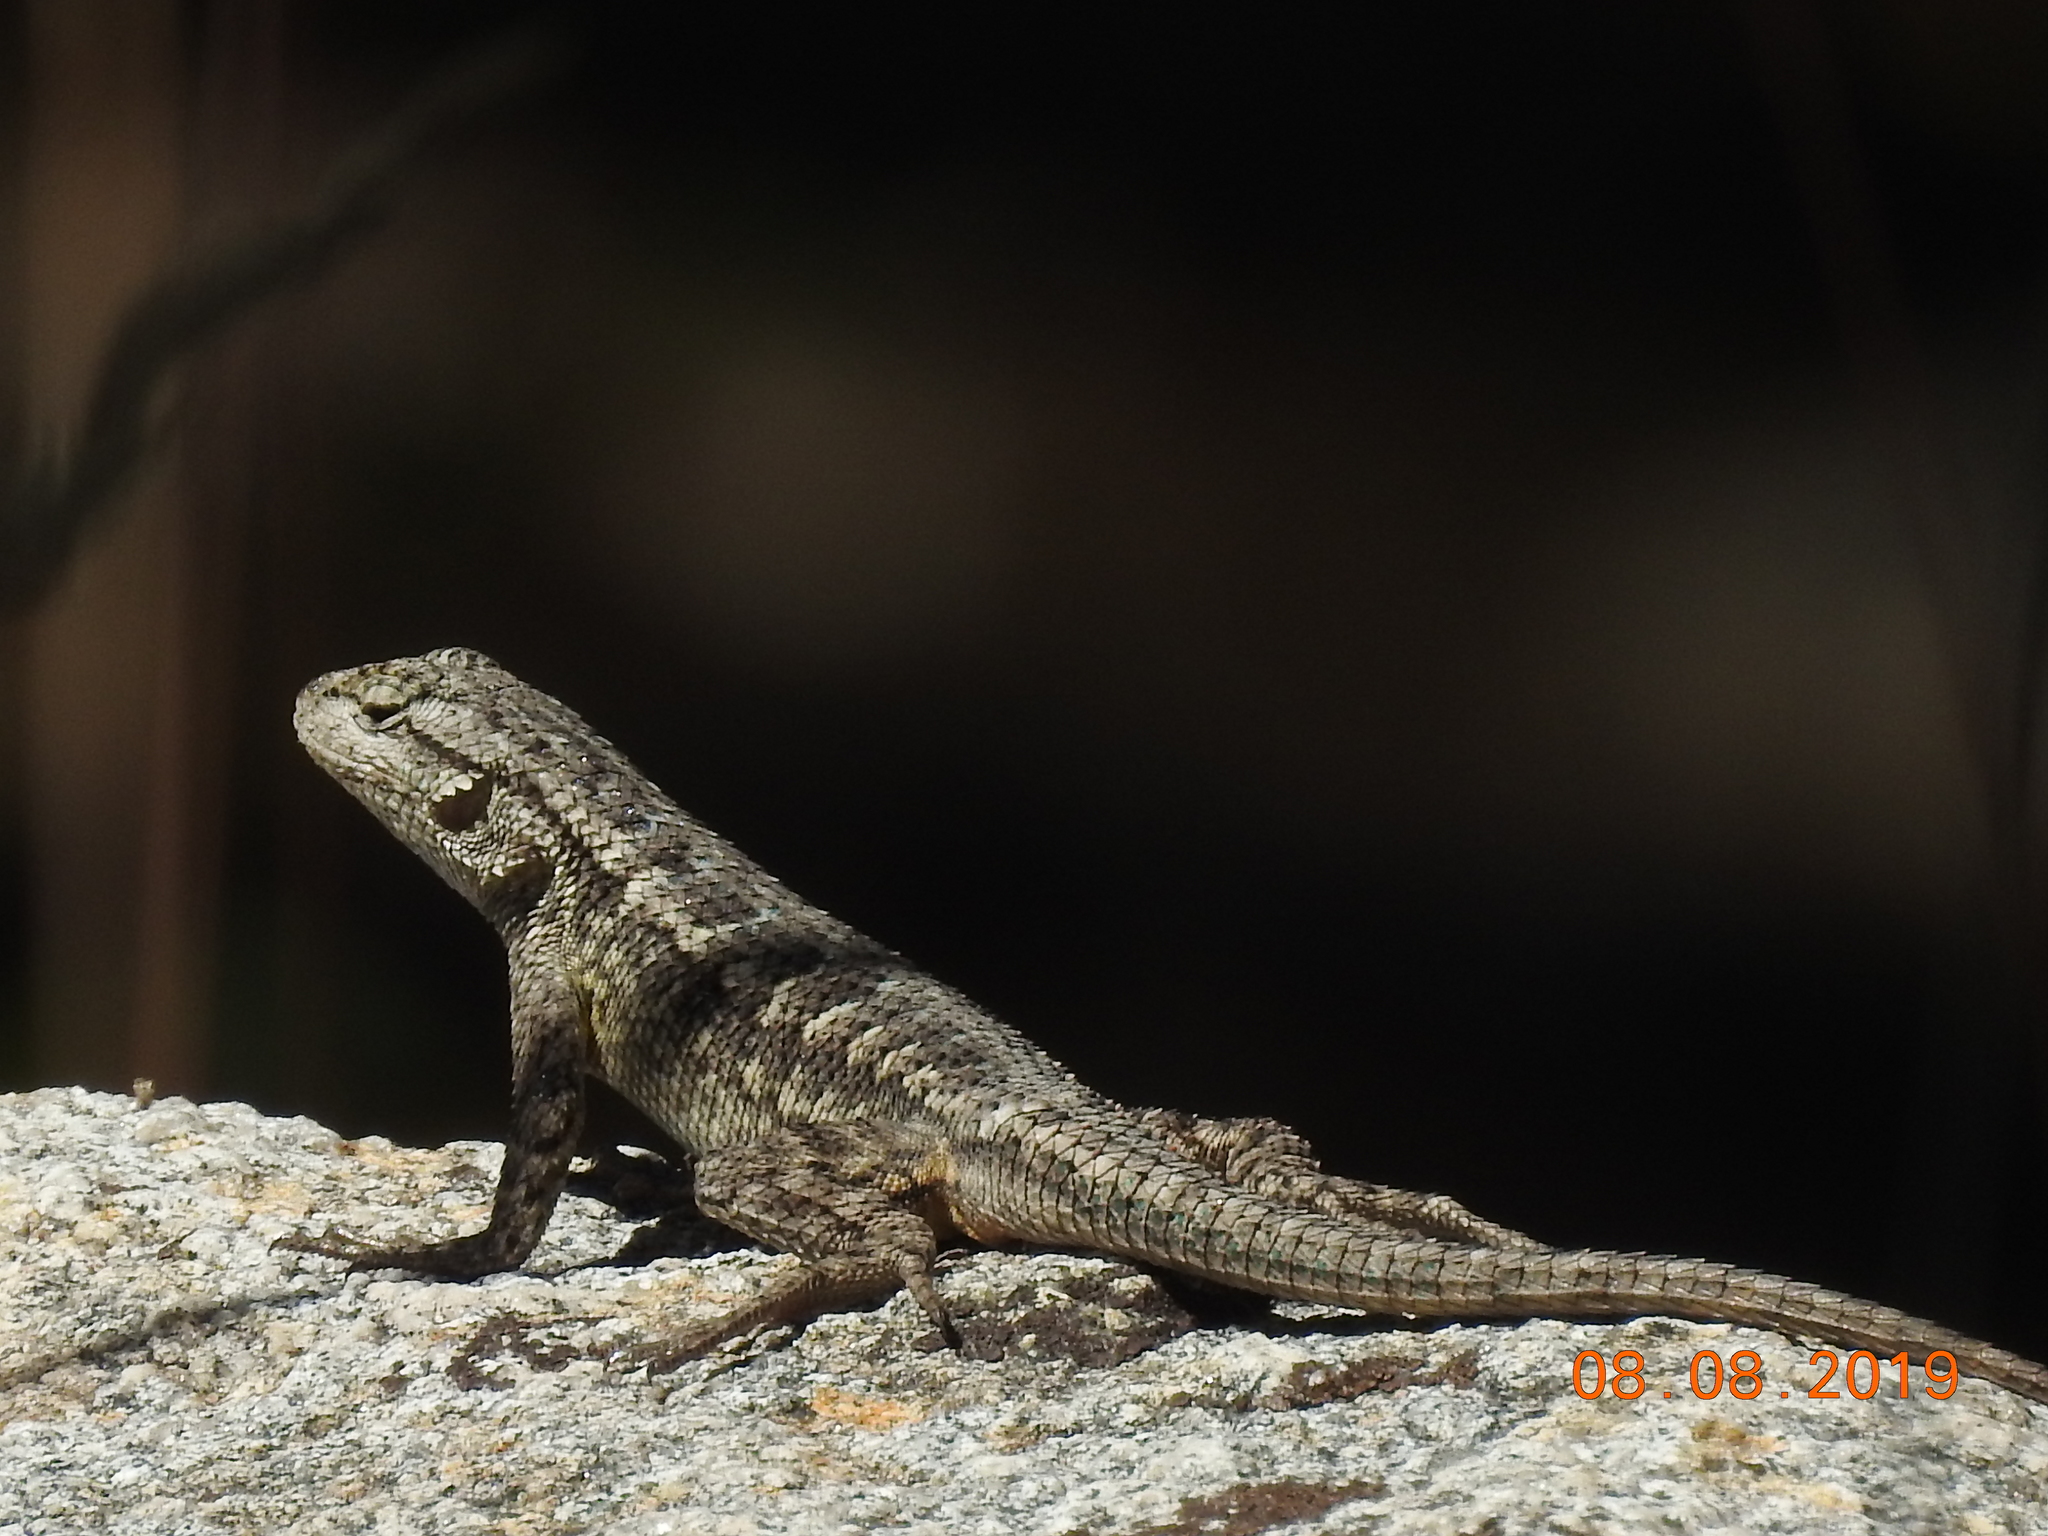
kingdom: Animalia
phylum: Chordata
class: Squamata
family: Phrynosomatidae
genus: Sceloporus
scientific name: Sceloporus occidentalis
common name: Western fence lizard
